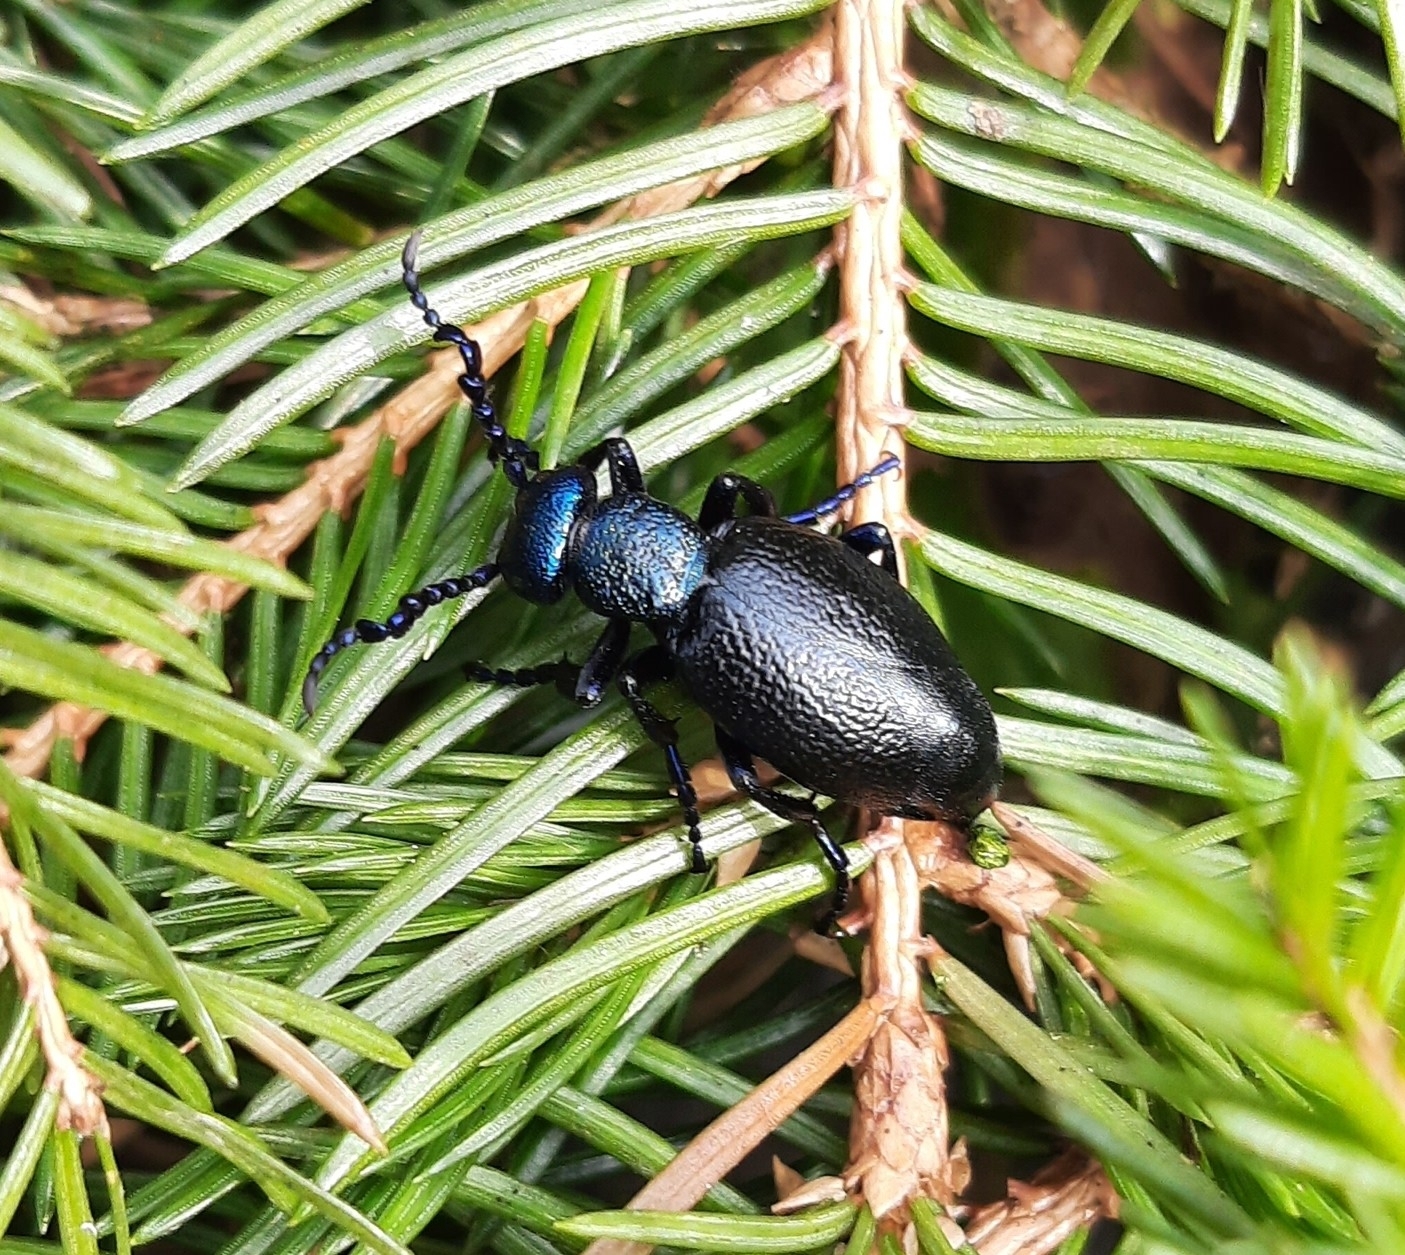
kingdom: Animalia
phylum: Arthropoda
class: Insecta
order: Coleoptera
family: Meloidae
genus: Meloe
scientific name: Meloe proscarabaeus
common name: Black oil-beetle
